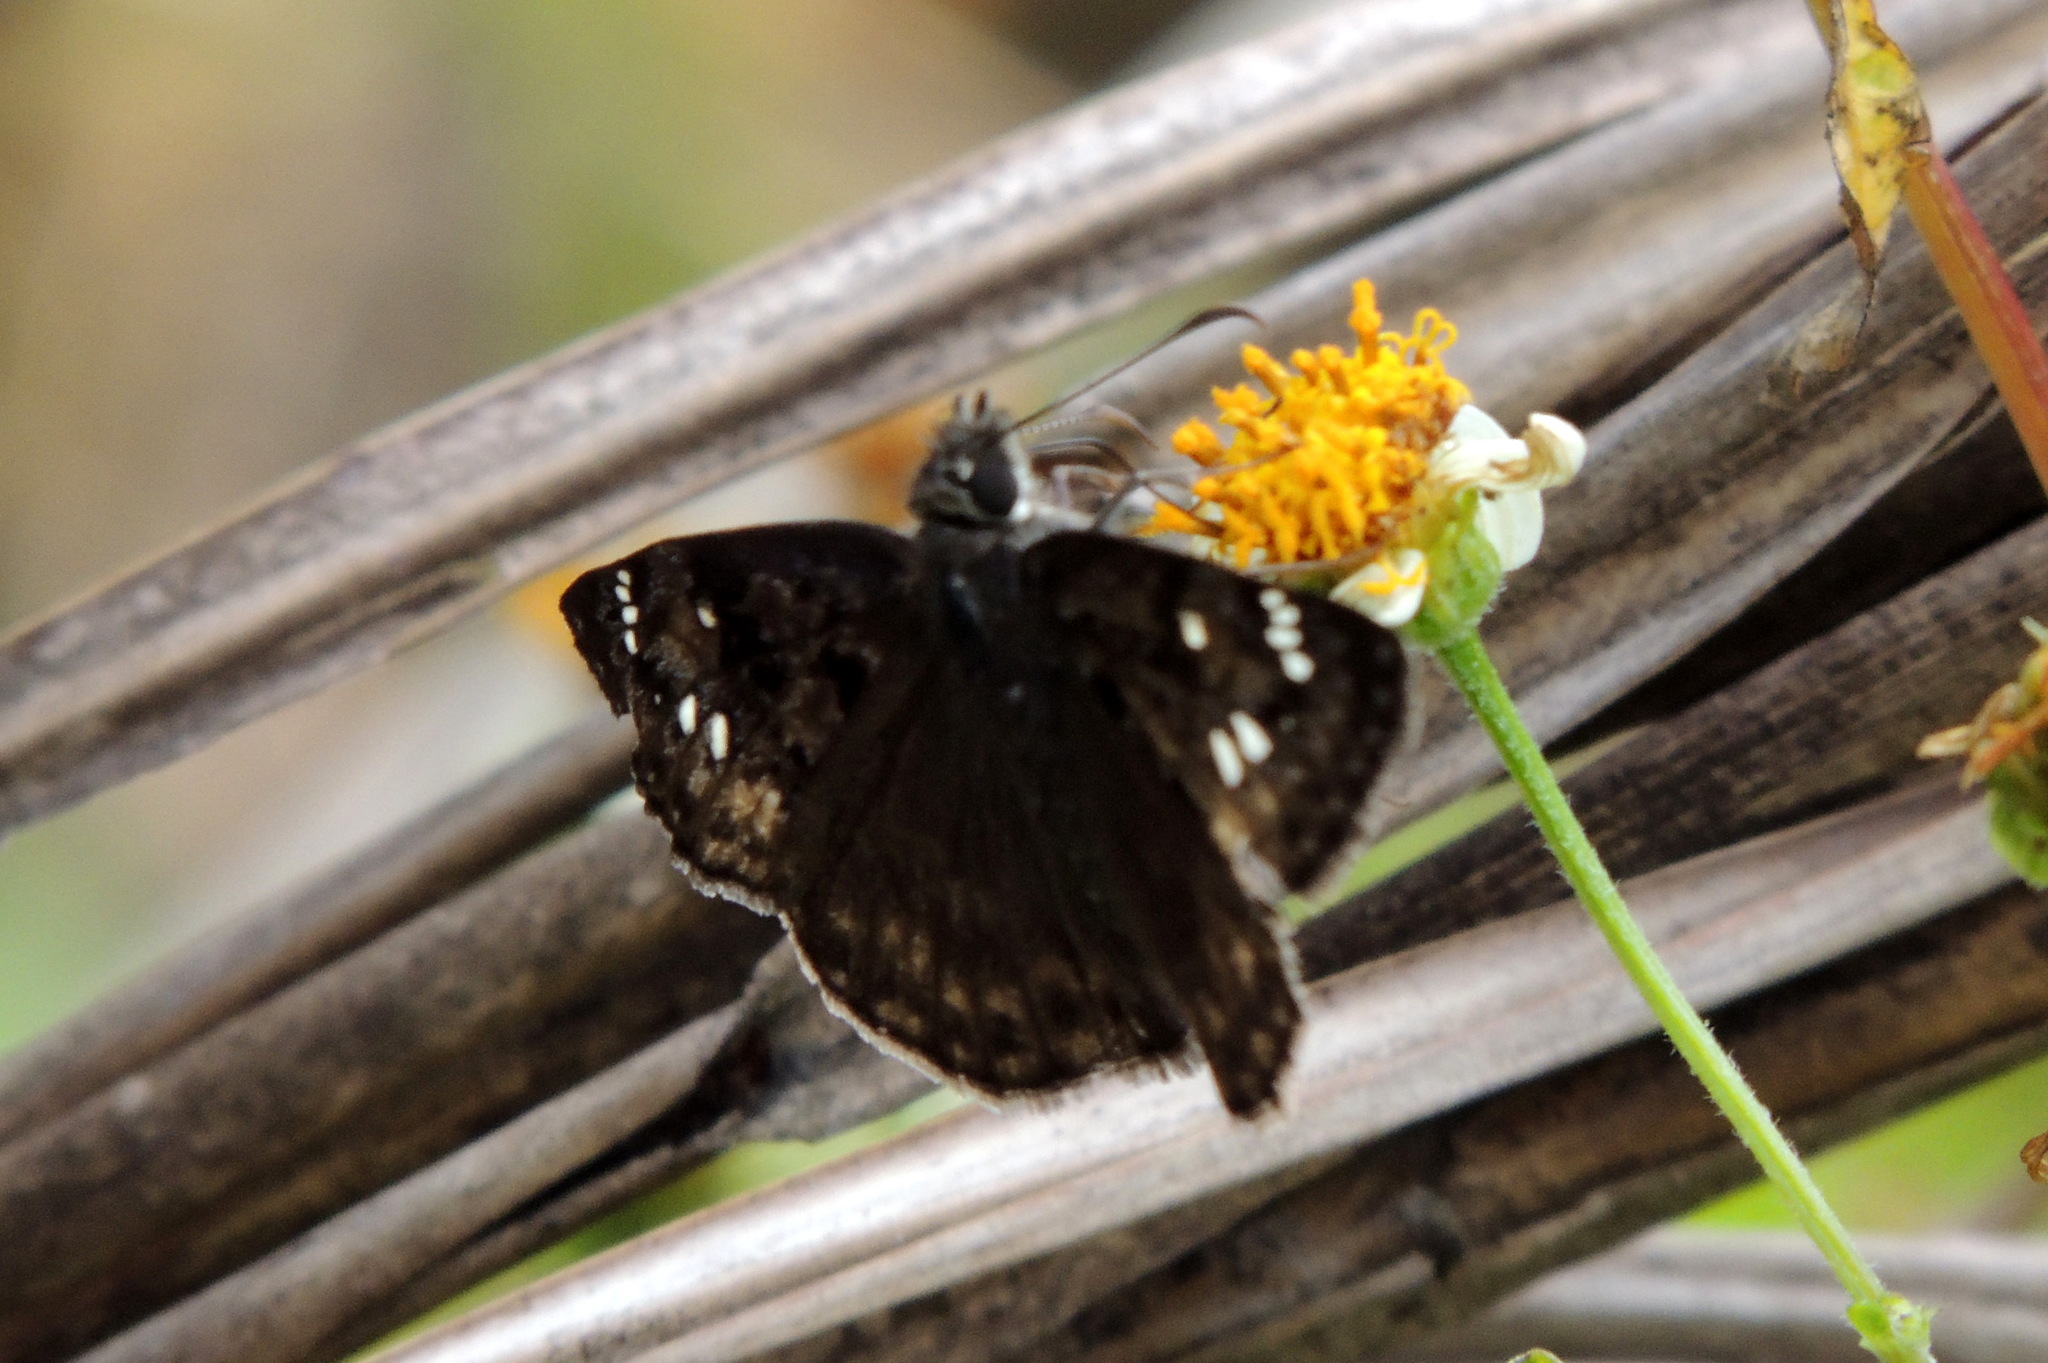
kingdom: Animalia
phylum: Arthropoda
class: Insecta
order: Lepidoptera
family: Hesperiidae
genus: Erynnis
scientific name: Erynnis horatius
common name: Horace's duskywing
